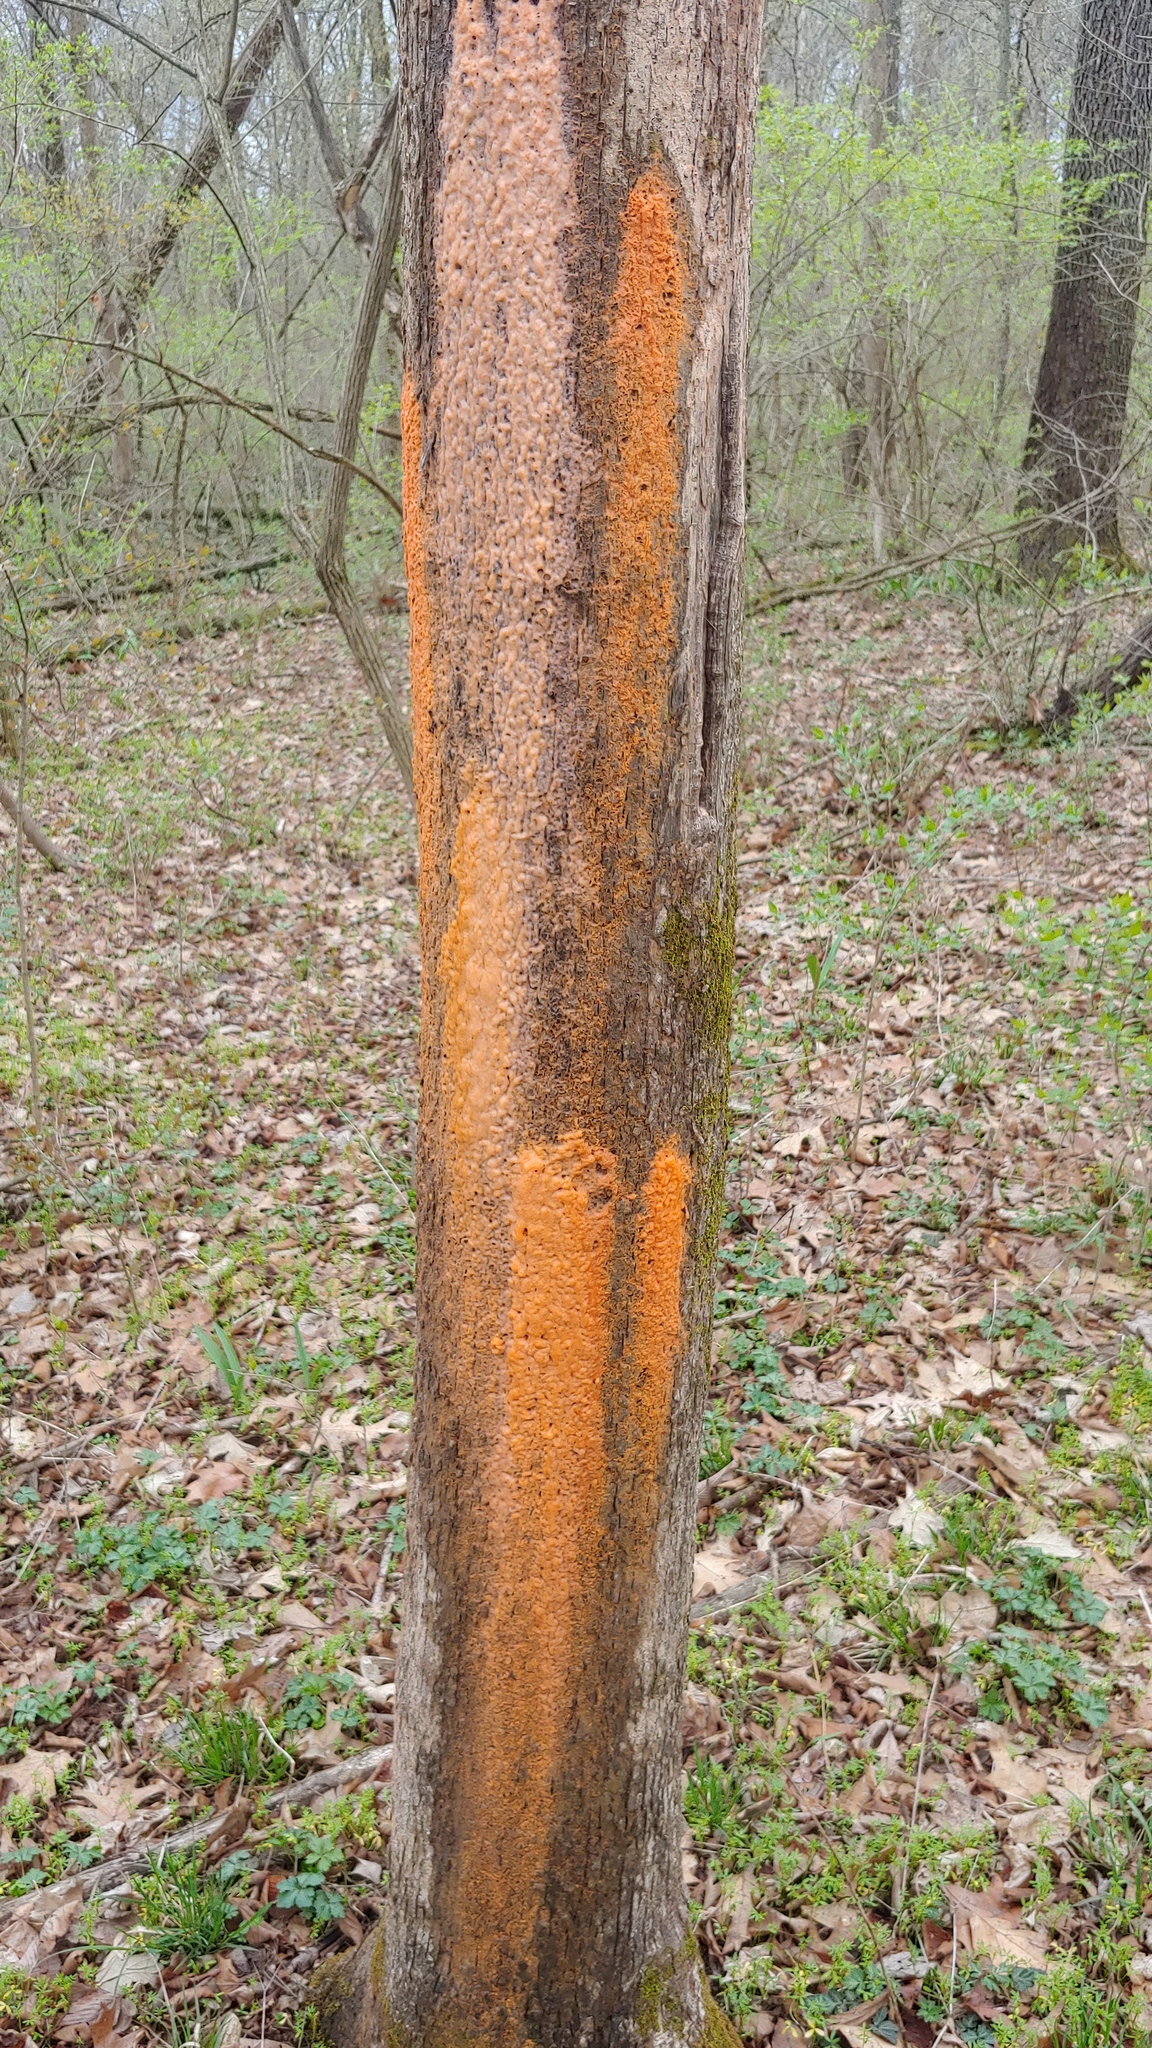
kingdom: Fungi
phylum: Basidiomycota
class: Tremellomycetes
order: Cystofilobasidiales
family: Cystofilobasidiaceae
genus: Cystofilobasidium
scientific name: Cystofilobasidium macerans
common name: Sap yeast
